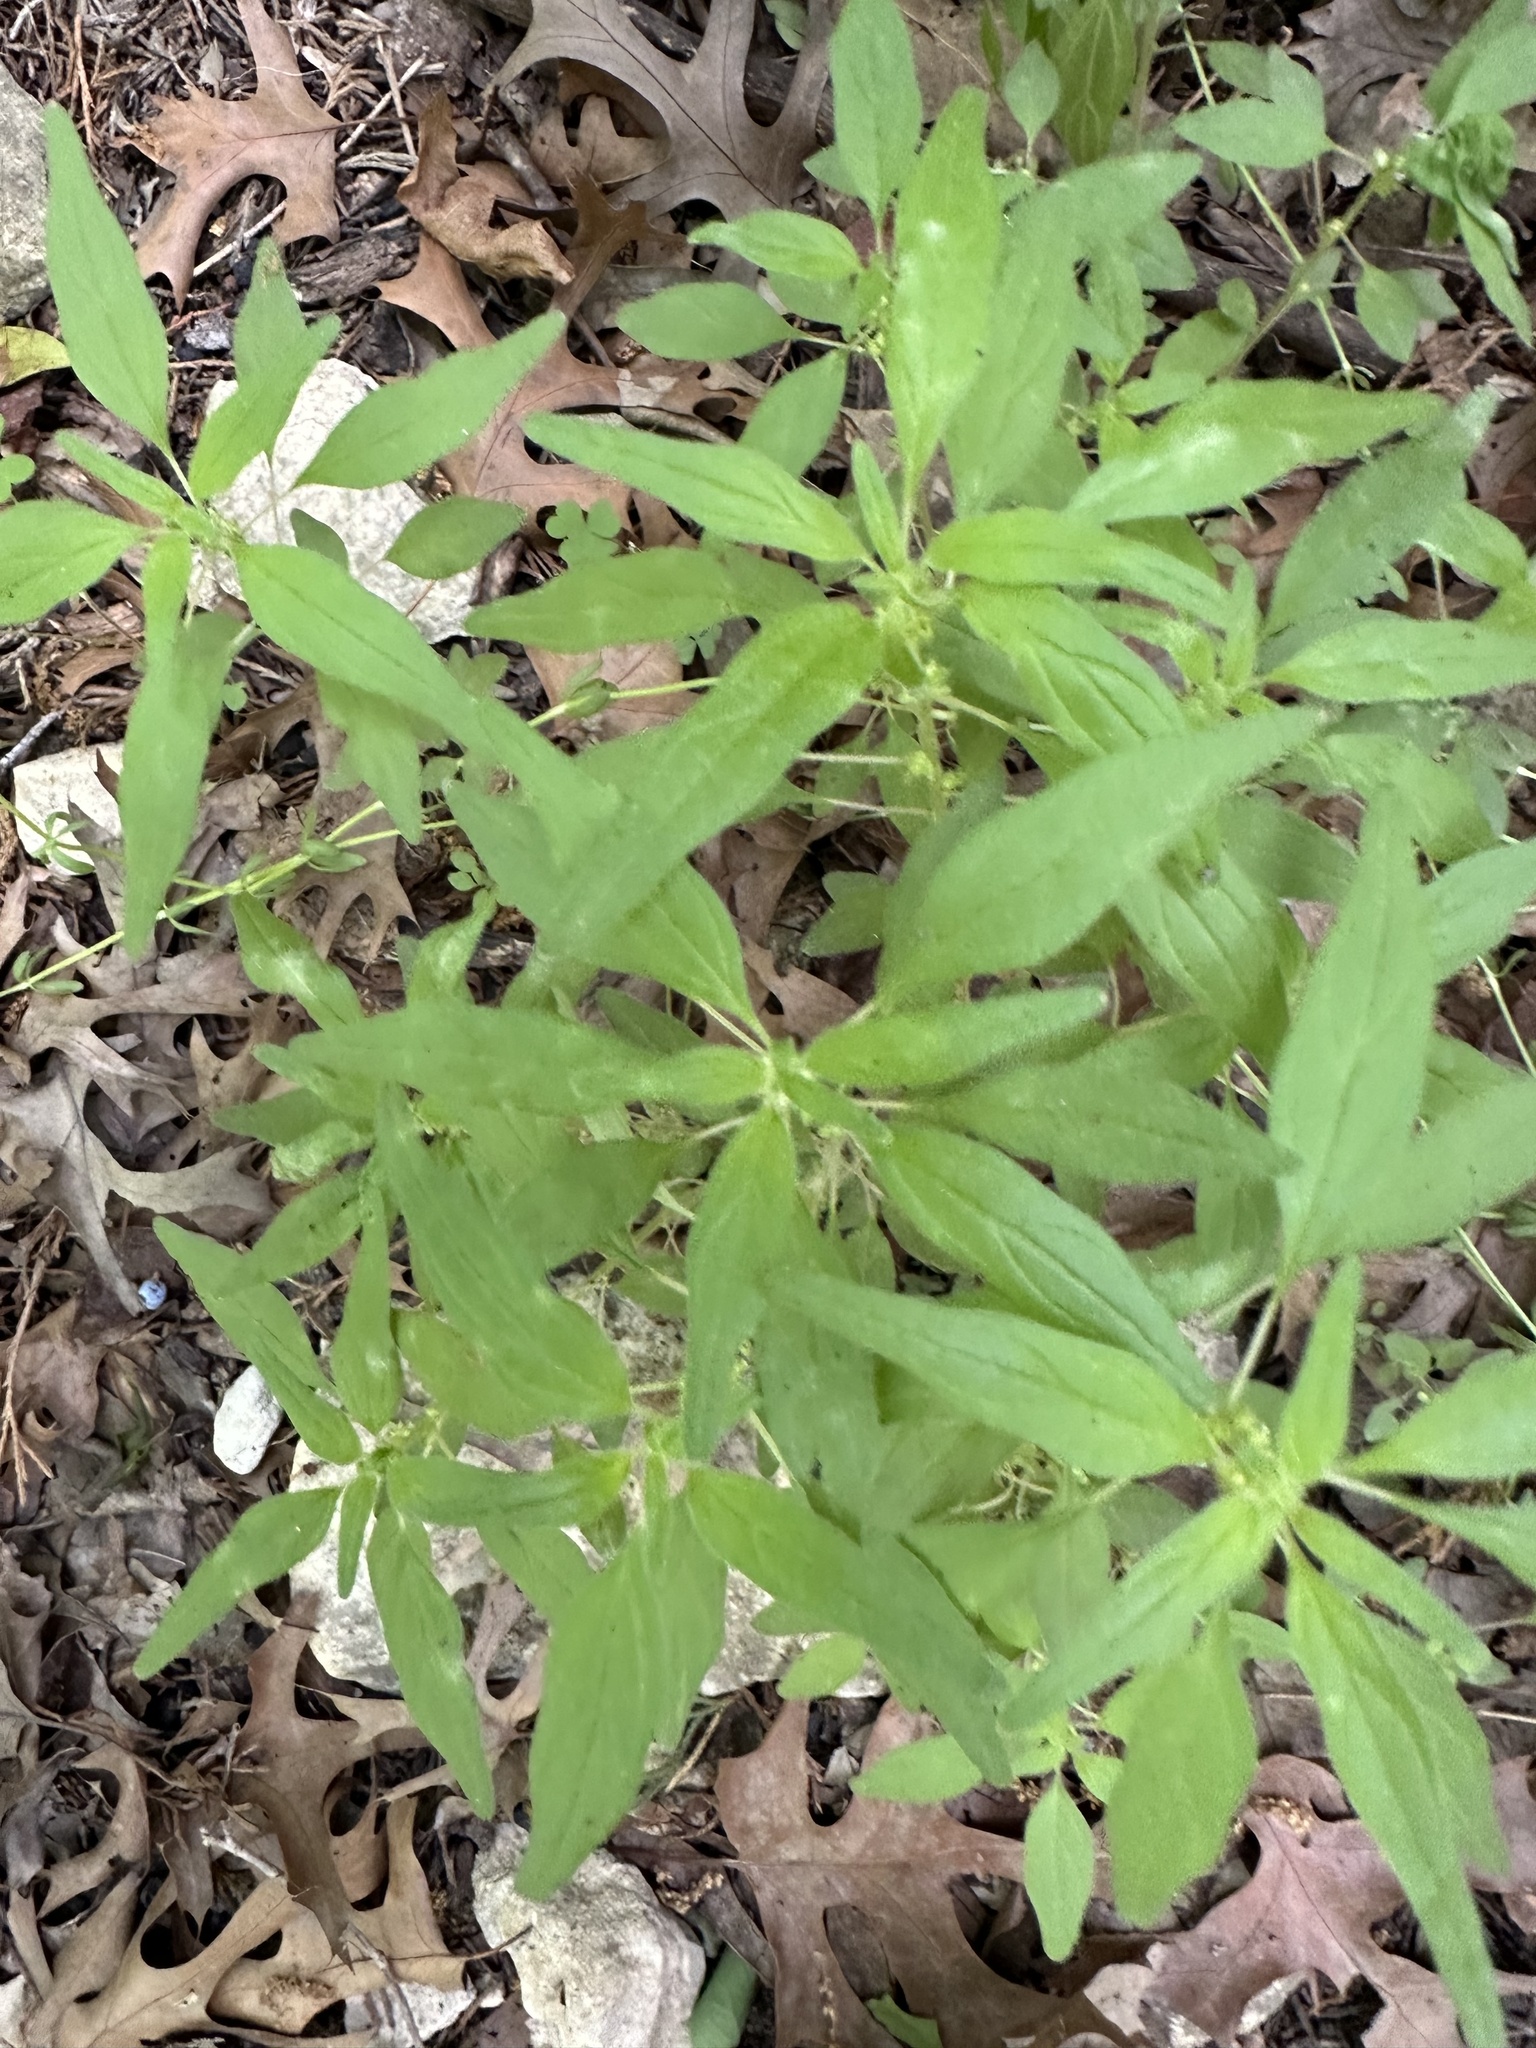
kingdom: Plantae
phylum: Tracheophyta
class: Magnoliopsida
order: Rosales
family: Urticaceae
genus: Parietaria
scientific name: Parietaria pensylvanica
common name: Pennsylvania pellitory
